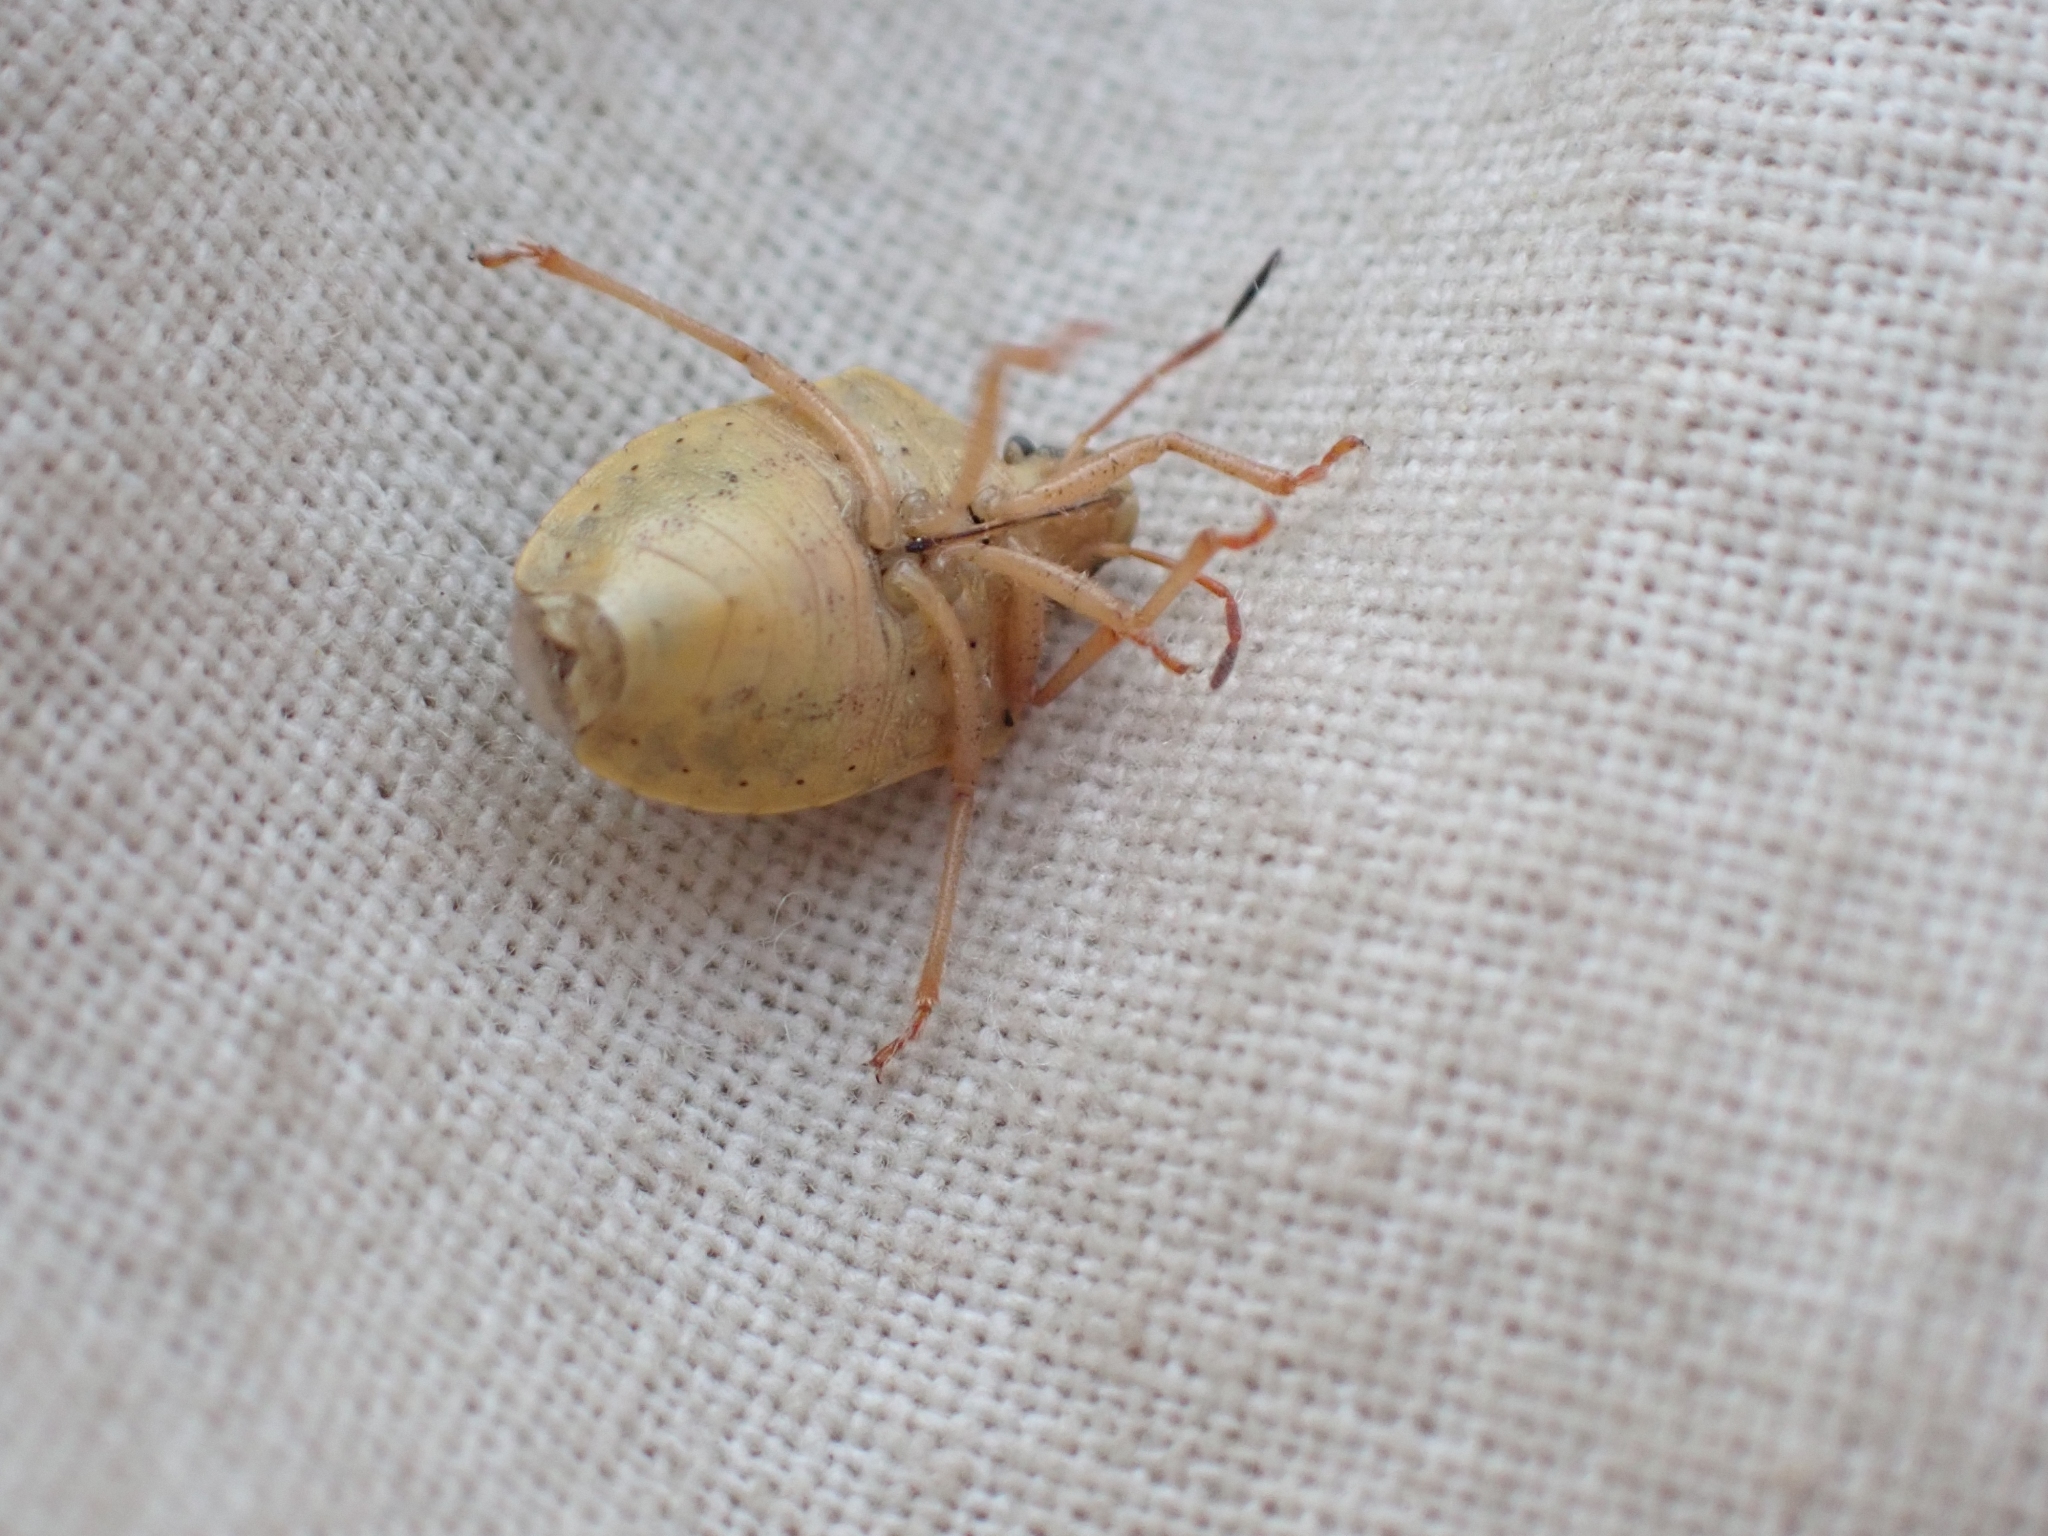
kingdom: Animalia
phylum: Arthropoda
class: Insecta
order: Hemiptera
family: Pentatomidae
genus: Holcostethus
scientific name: Holcostethus limbolarius
